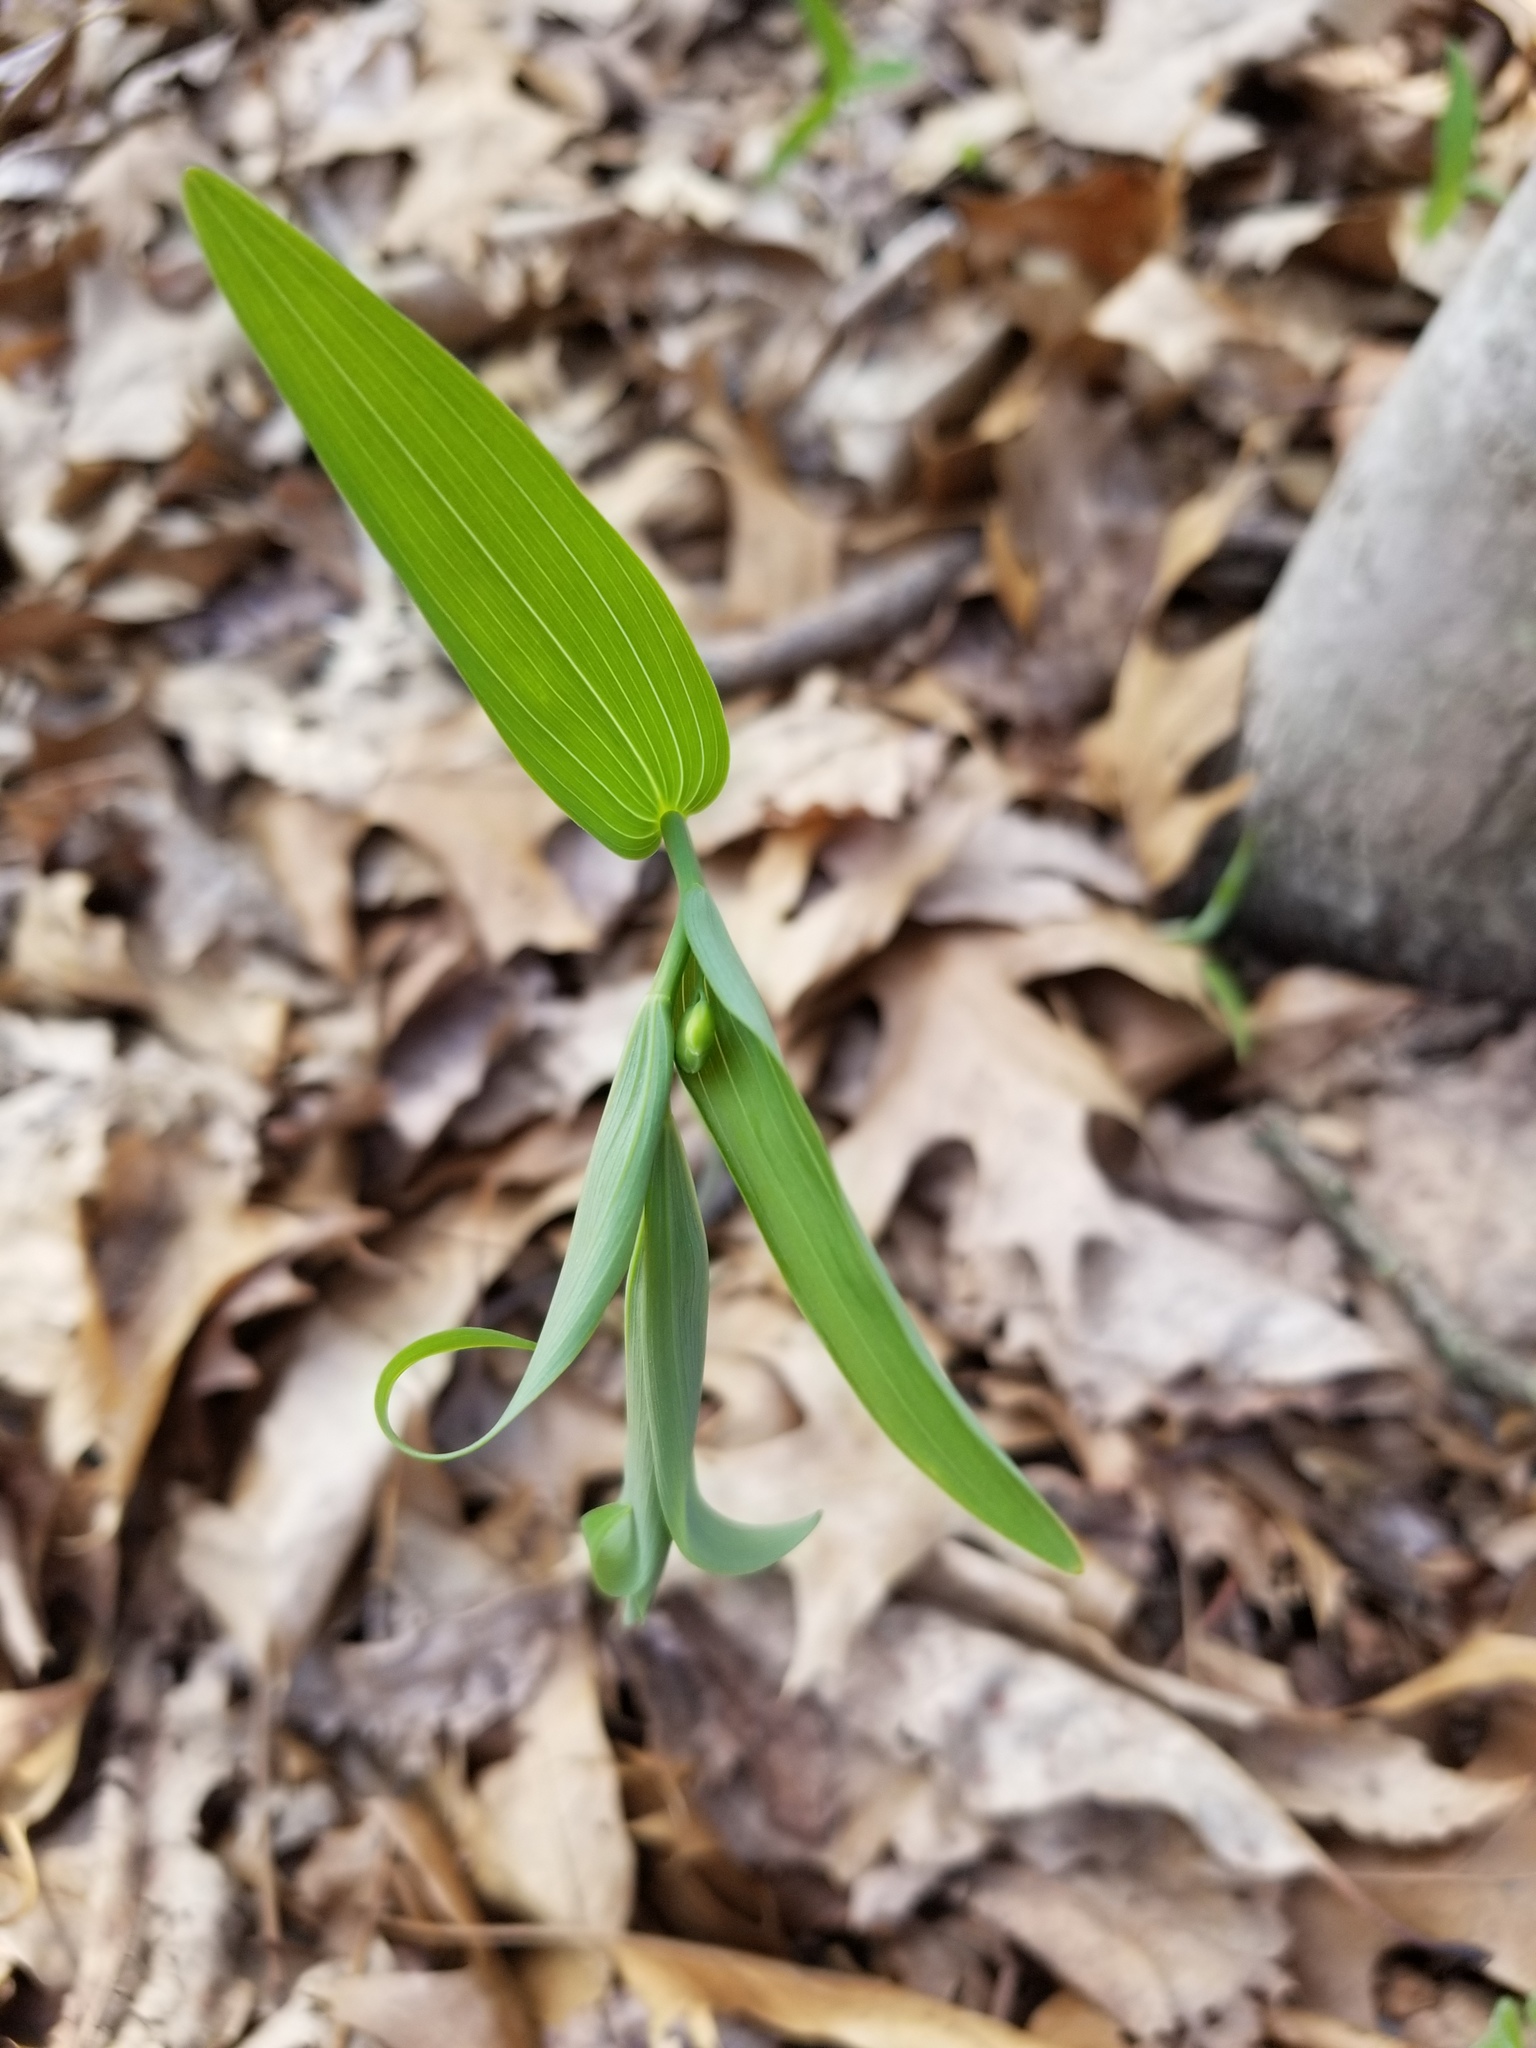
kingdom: Plantae
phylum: Tracheophyta
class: Liliopsida
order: Asparagales
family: Asparagaceae
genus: Polygonatum
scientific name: Polygonatum biflorum
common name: American solomon's-seal
